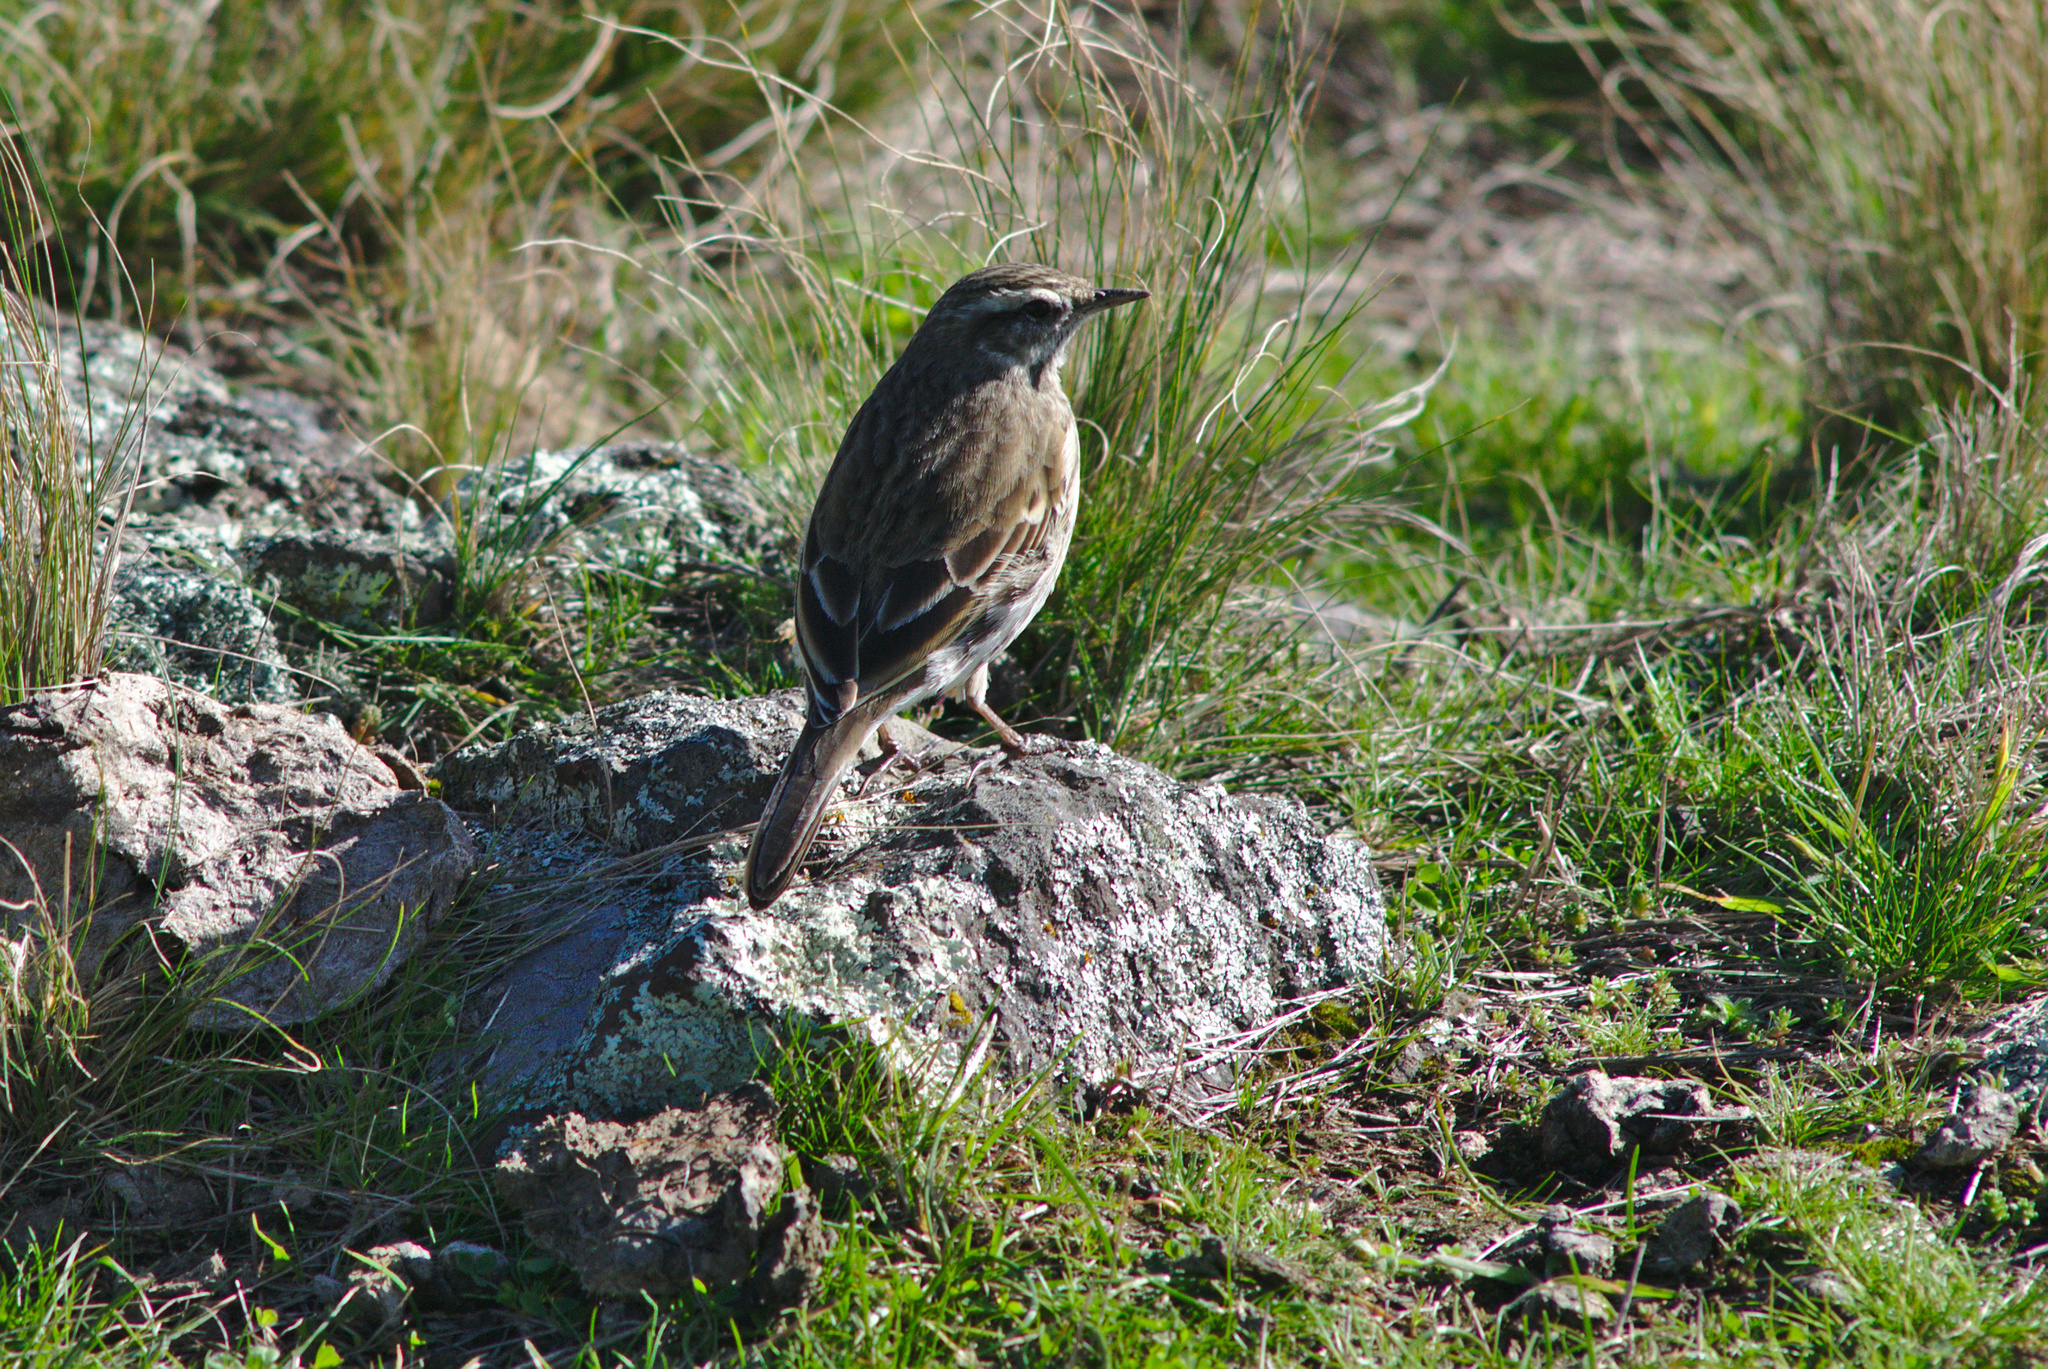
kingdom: Animalia
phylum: Chordata
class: Aves
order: Passeriformes
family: Motacillidae
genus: Anthus
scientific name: Anthus novaeseelandiae
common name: New zealand pipit
